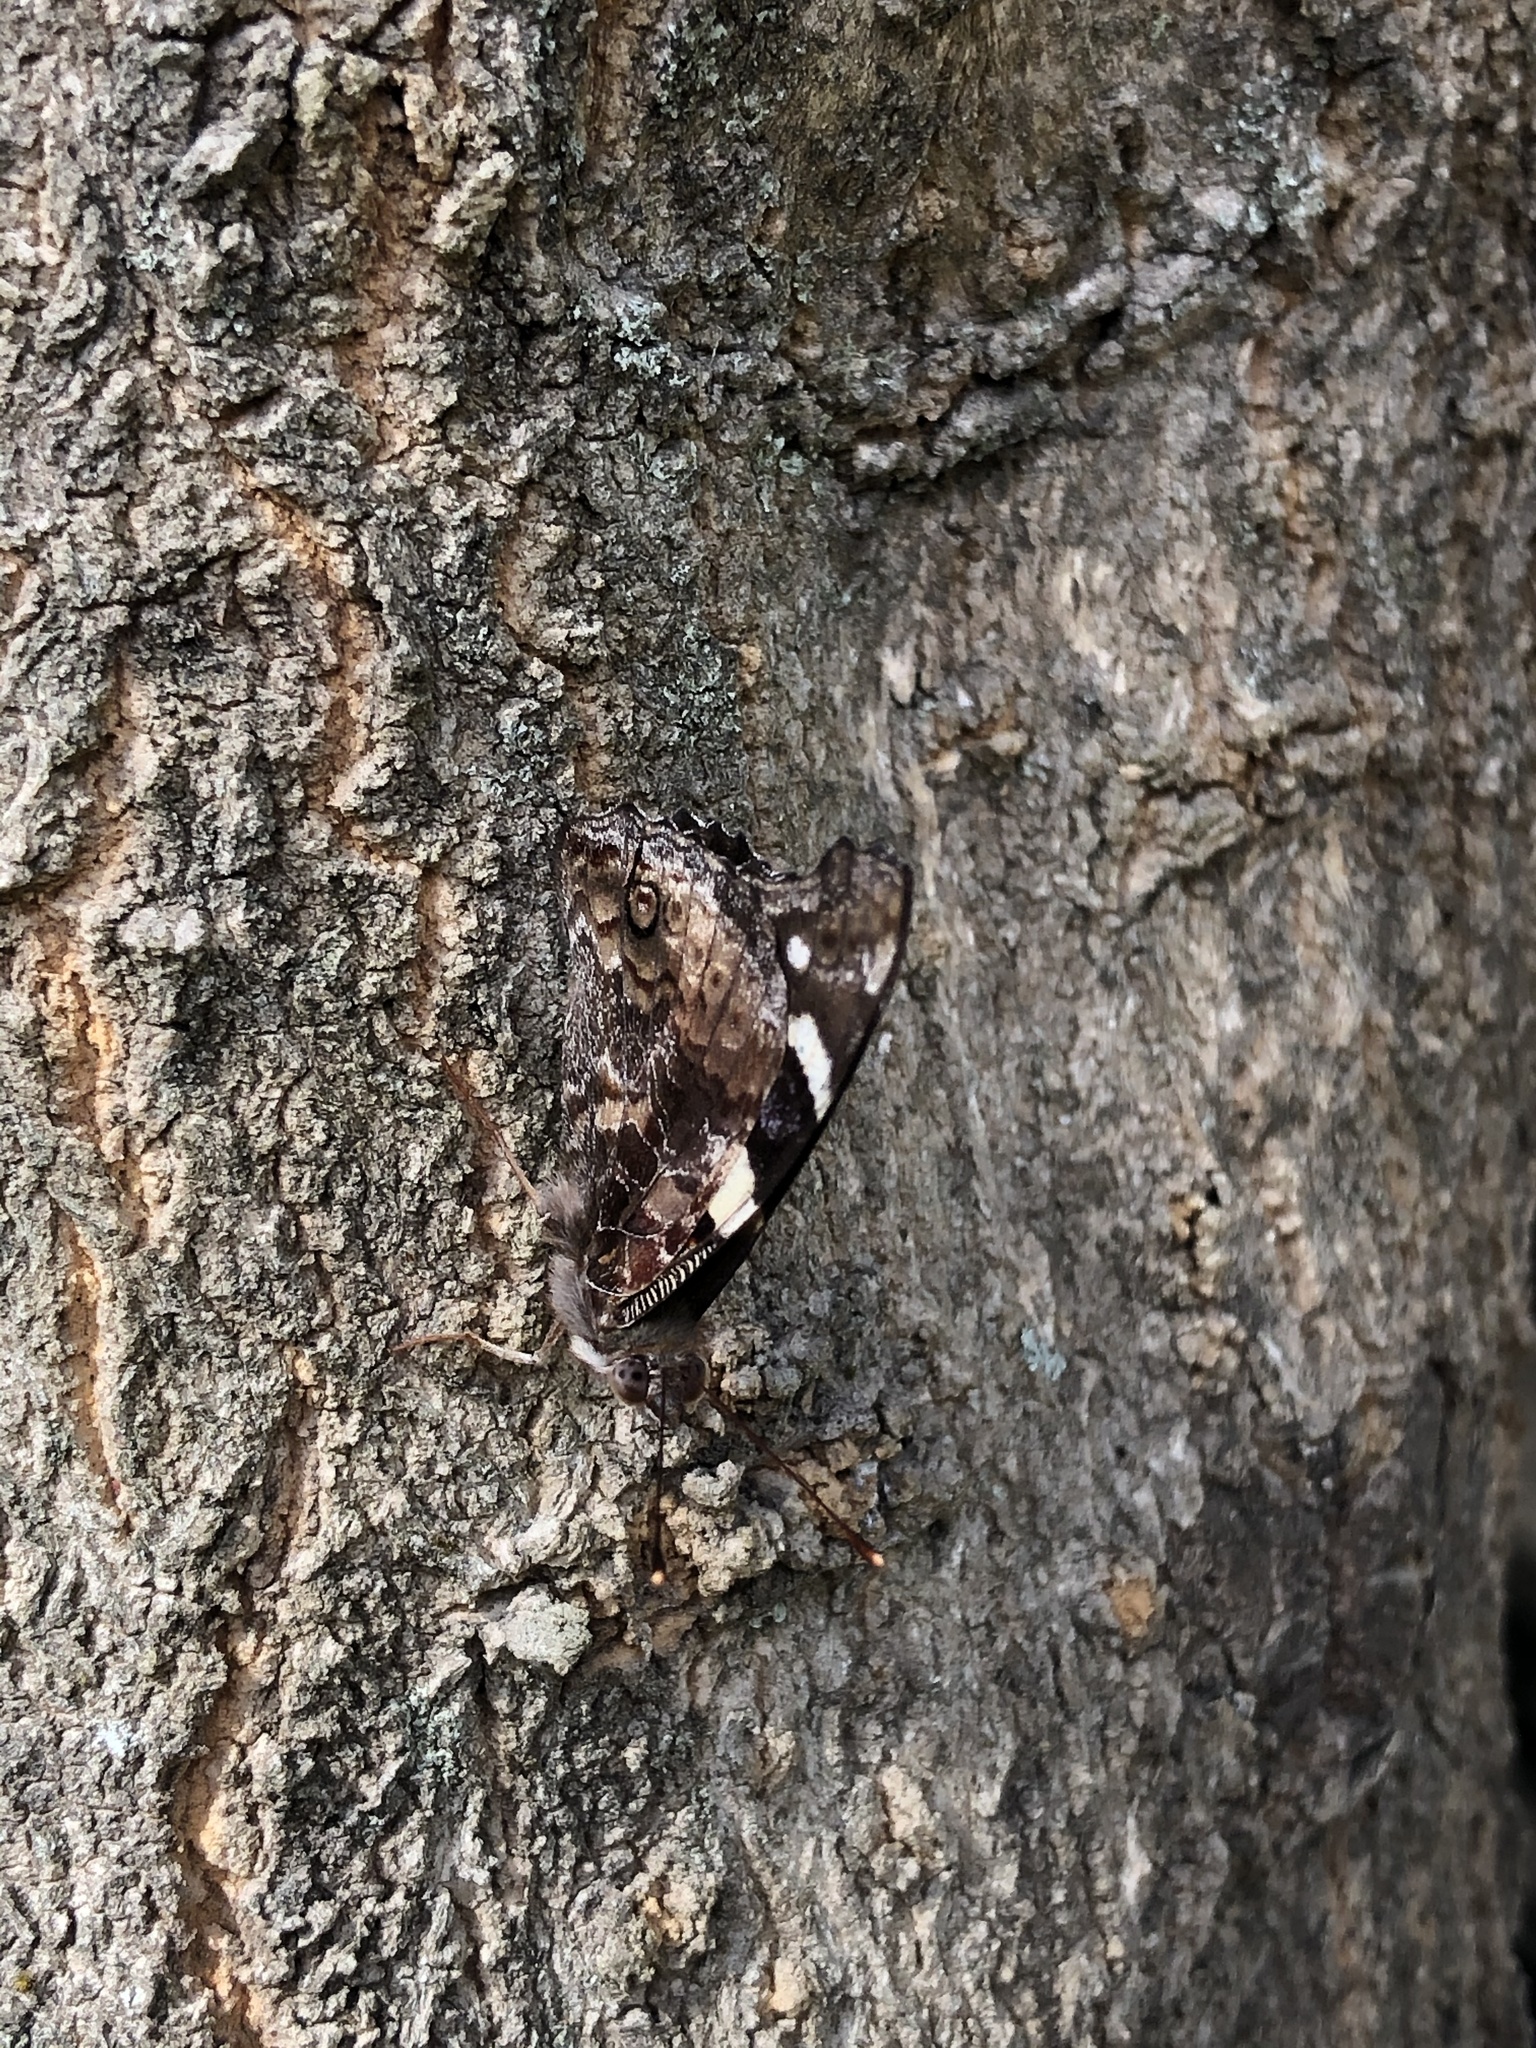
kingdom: Animalia
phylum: Arthropoda
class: Insecta
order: Lepidoptera
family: Nymphalidae
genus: Vanessa
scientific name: Vanessa itea
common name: Yellow admiral
